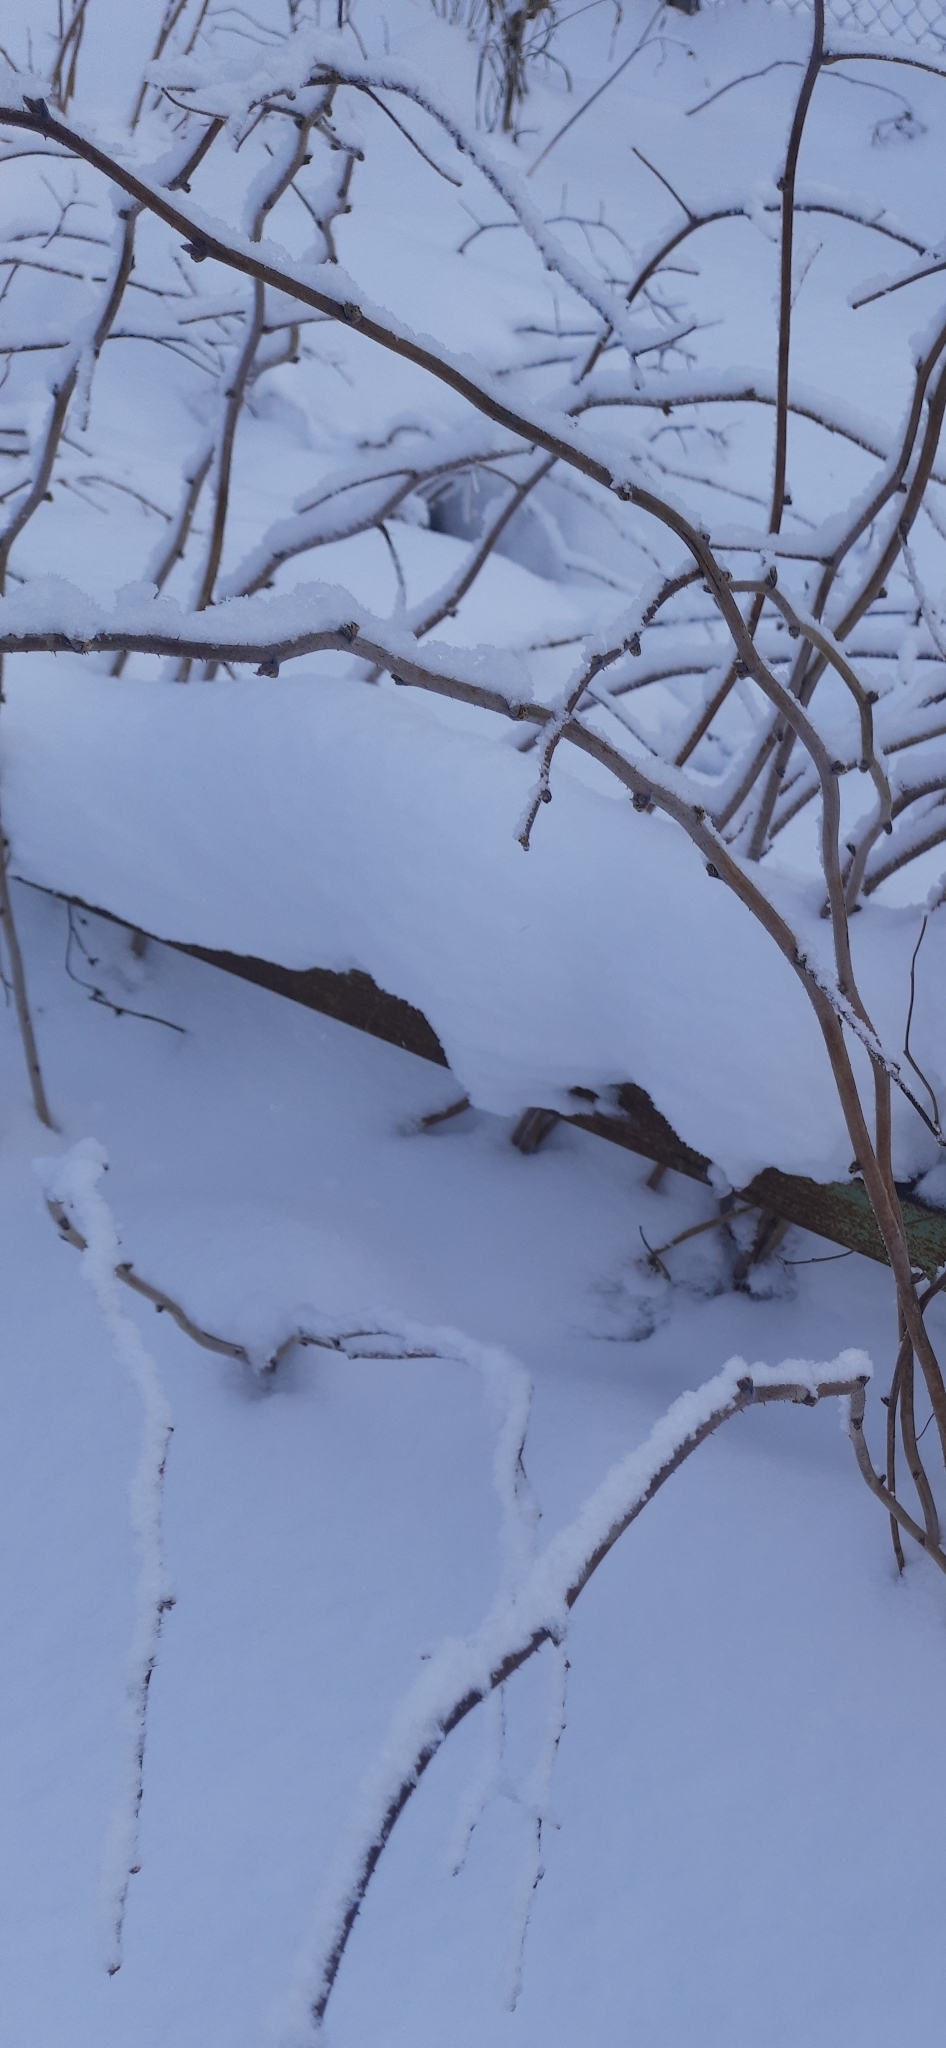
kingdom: Plantae
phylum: Tracheophyta
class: Magnoliopsida
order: Rosales
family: Rosaceae
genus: Rubus
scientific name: Rubus idaeus
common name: Raspberry
